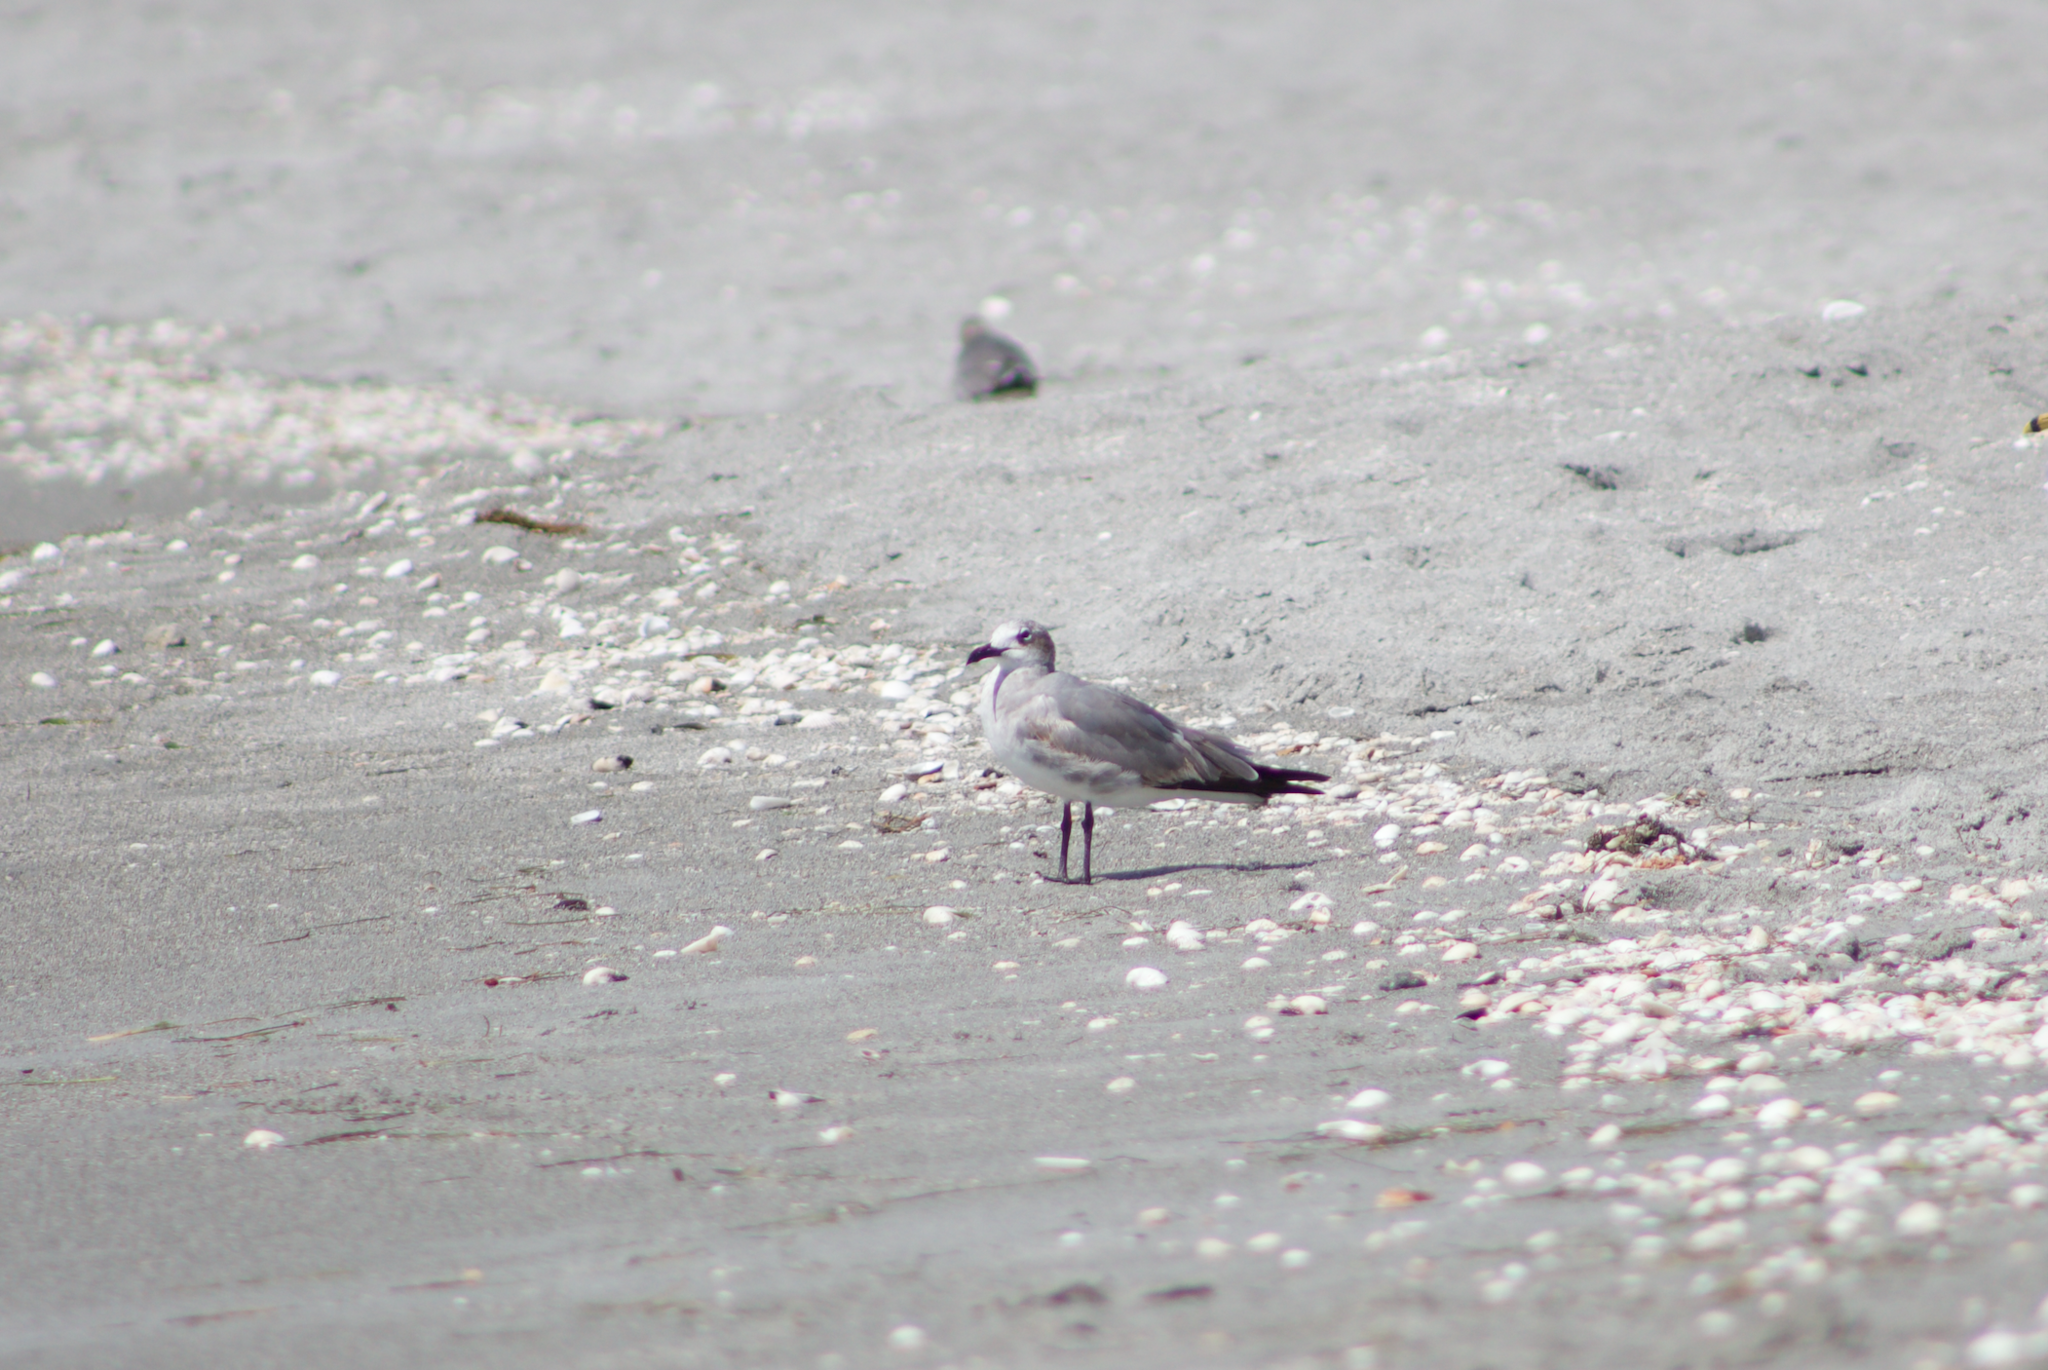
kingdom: Animalia
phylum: Chordata
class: Aves
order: Charadriiformes
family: Laridae
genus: Leucophaeus
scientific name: Leucophaeus atricilla
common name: Laughing gull
